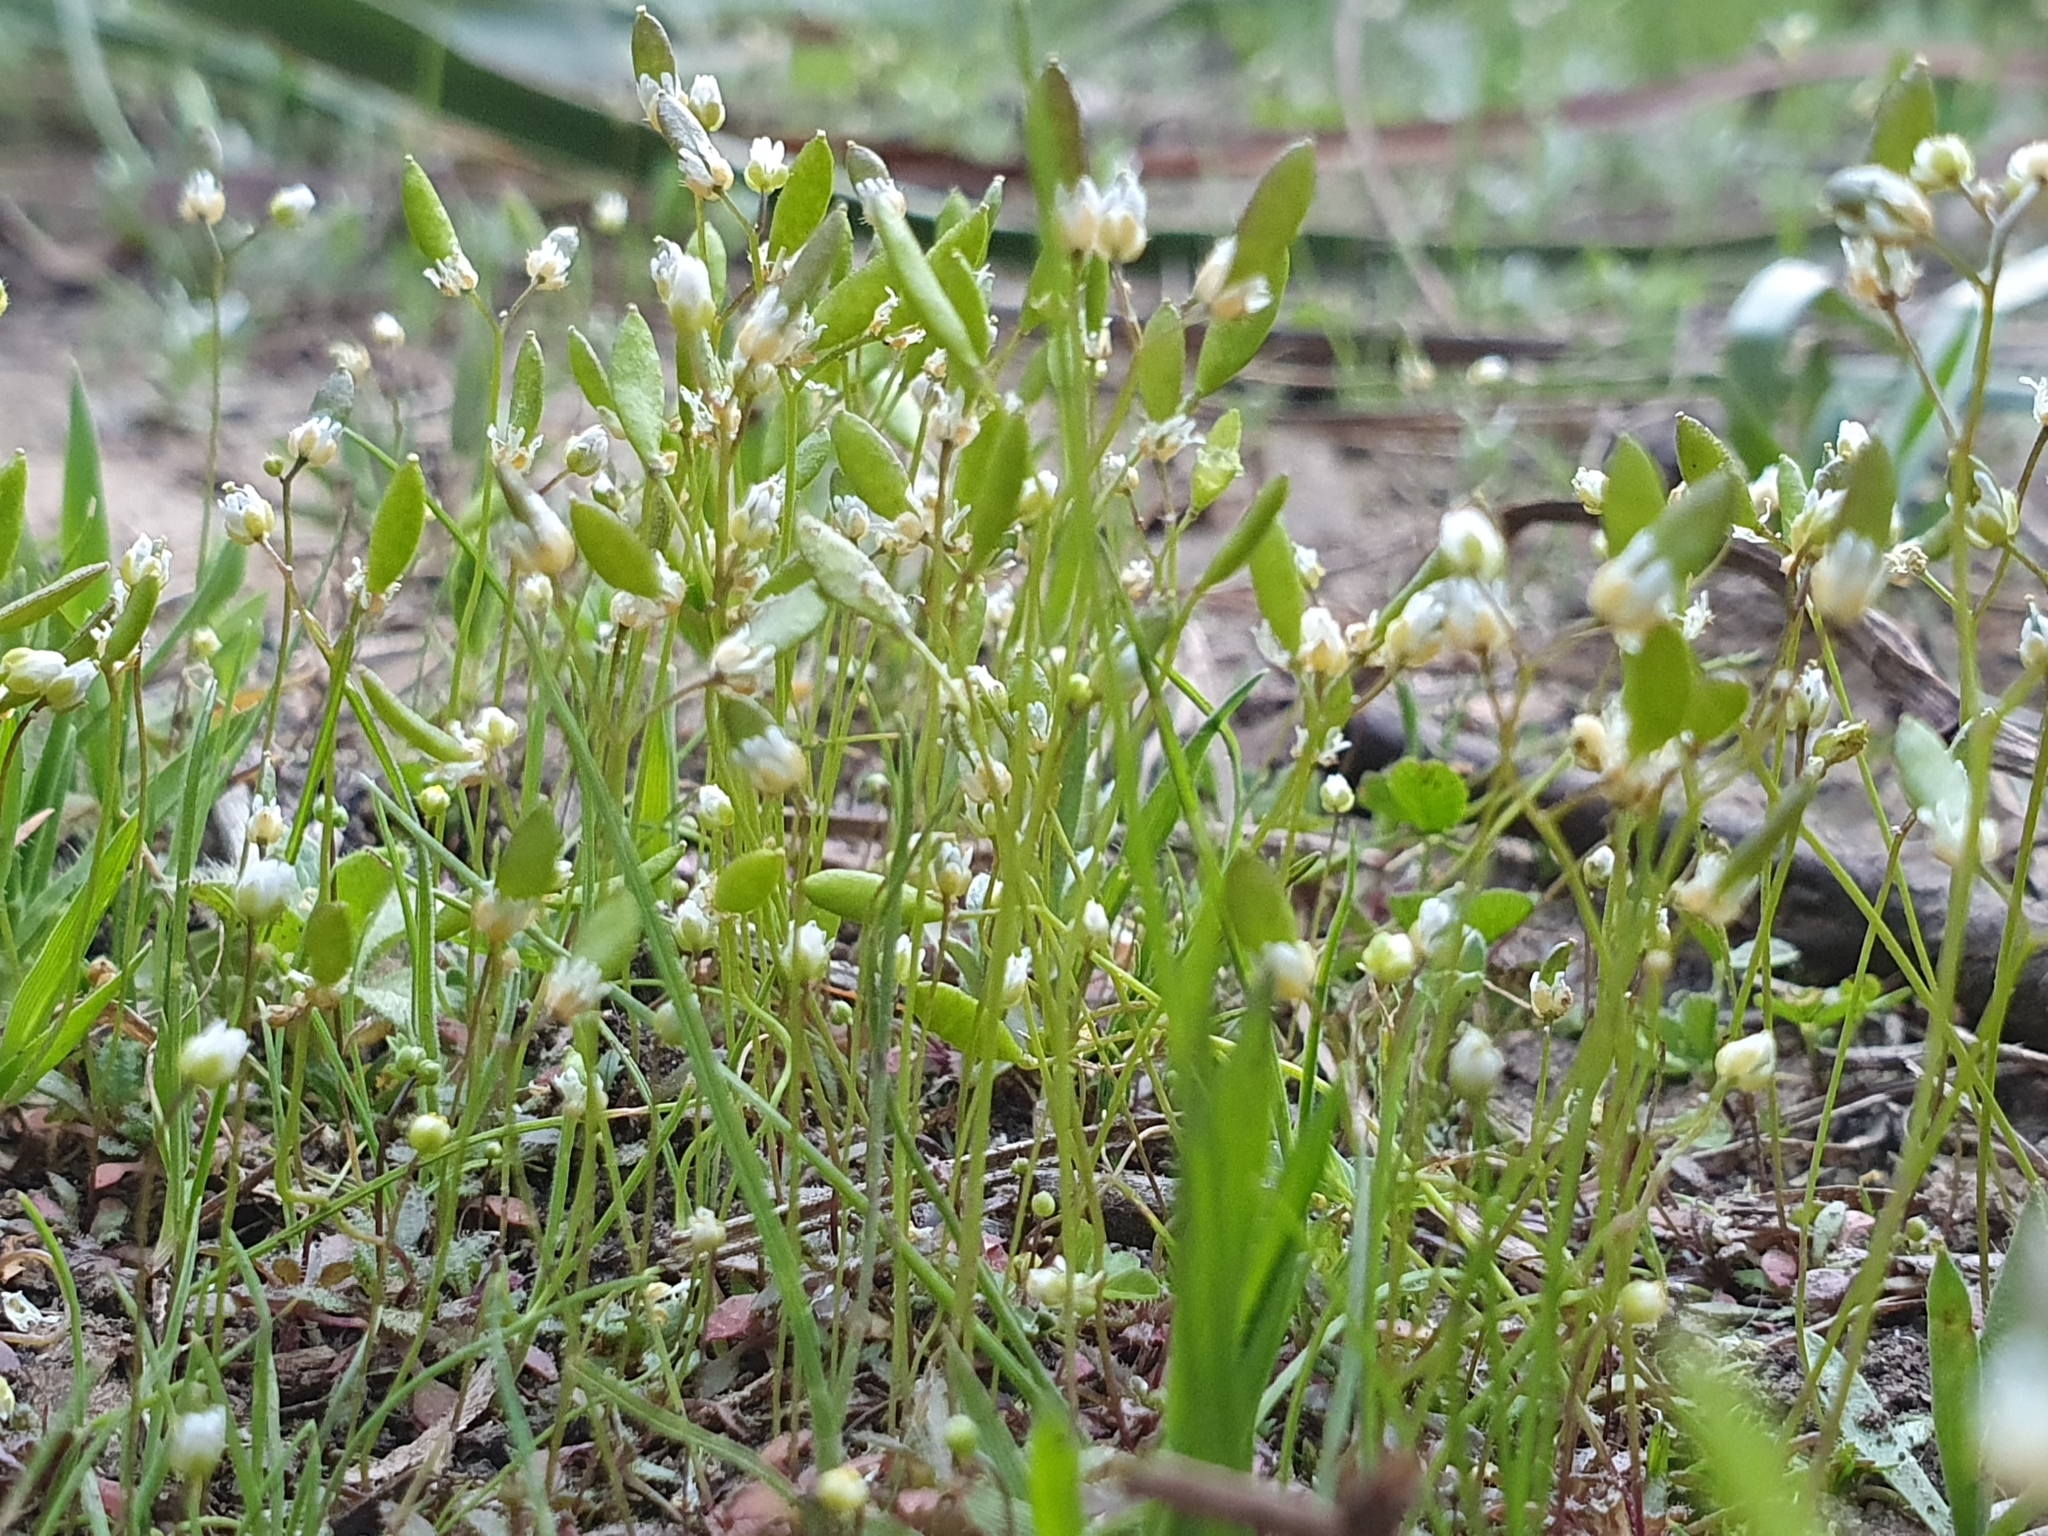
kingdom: Plantae
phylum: Tracheophyta
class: Magnoliopsida
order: Brassicales
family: Brassicaceae
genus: Draba
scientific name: Draba verna
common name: Spring draba
